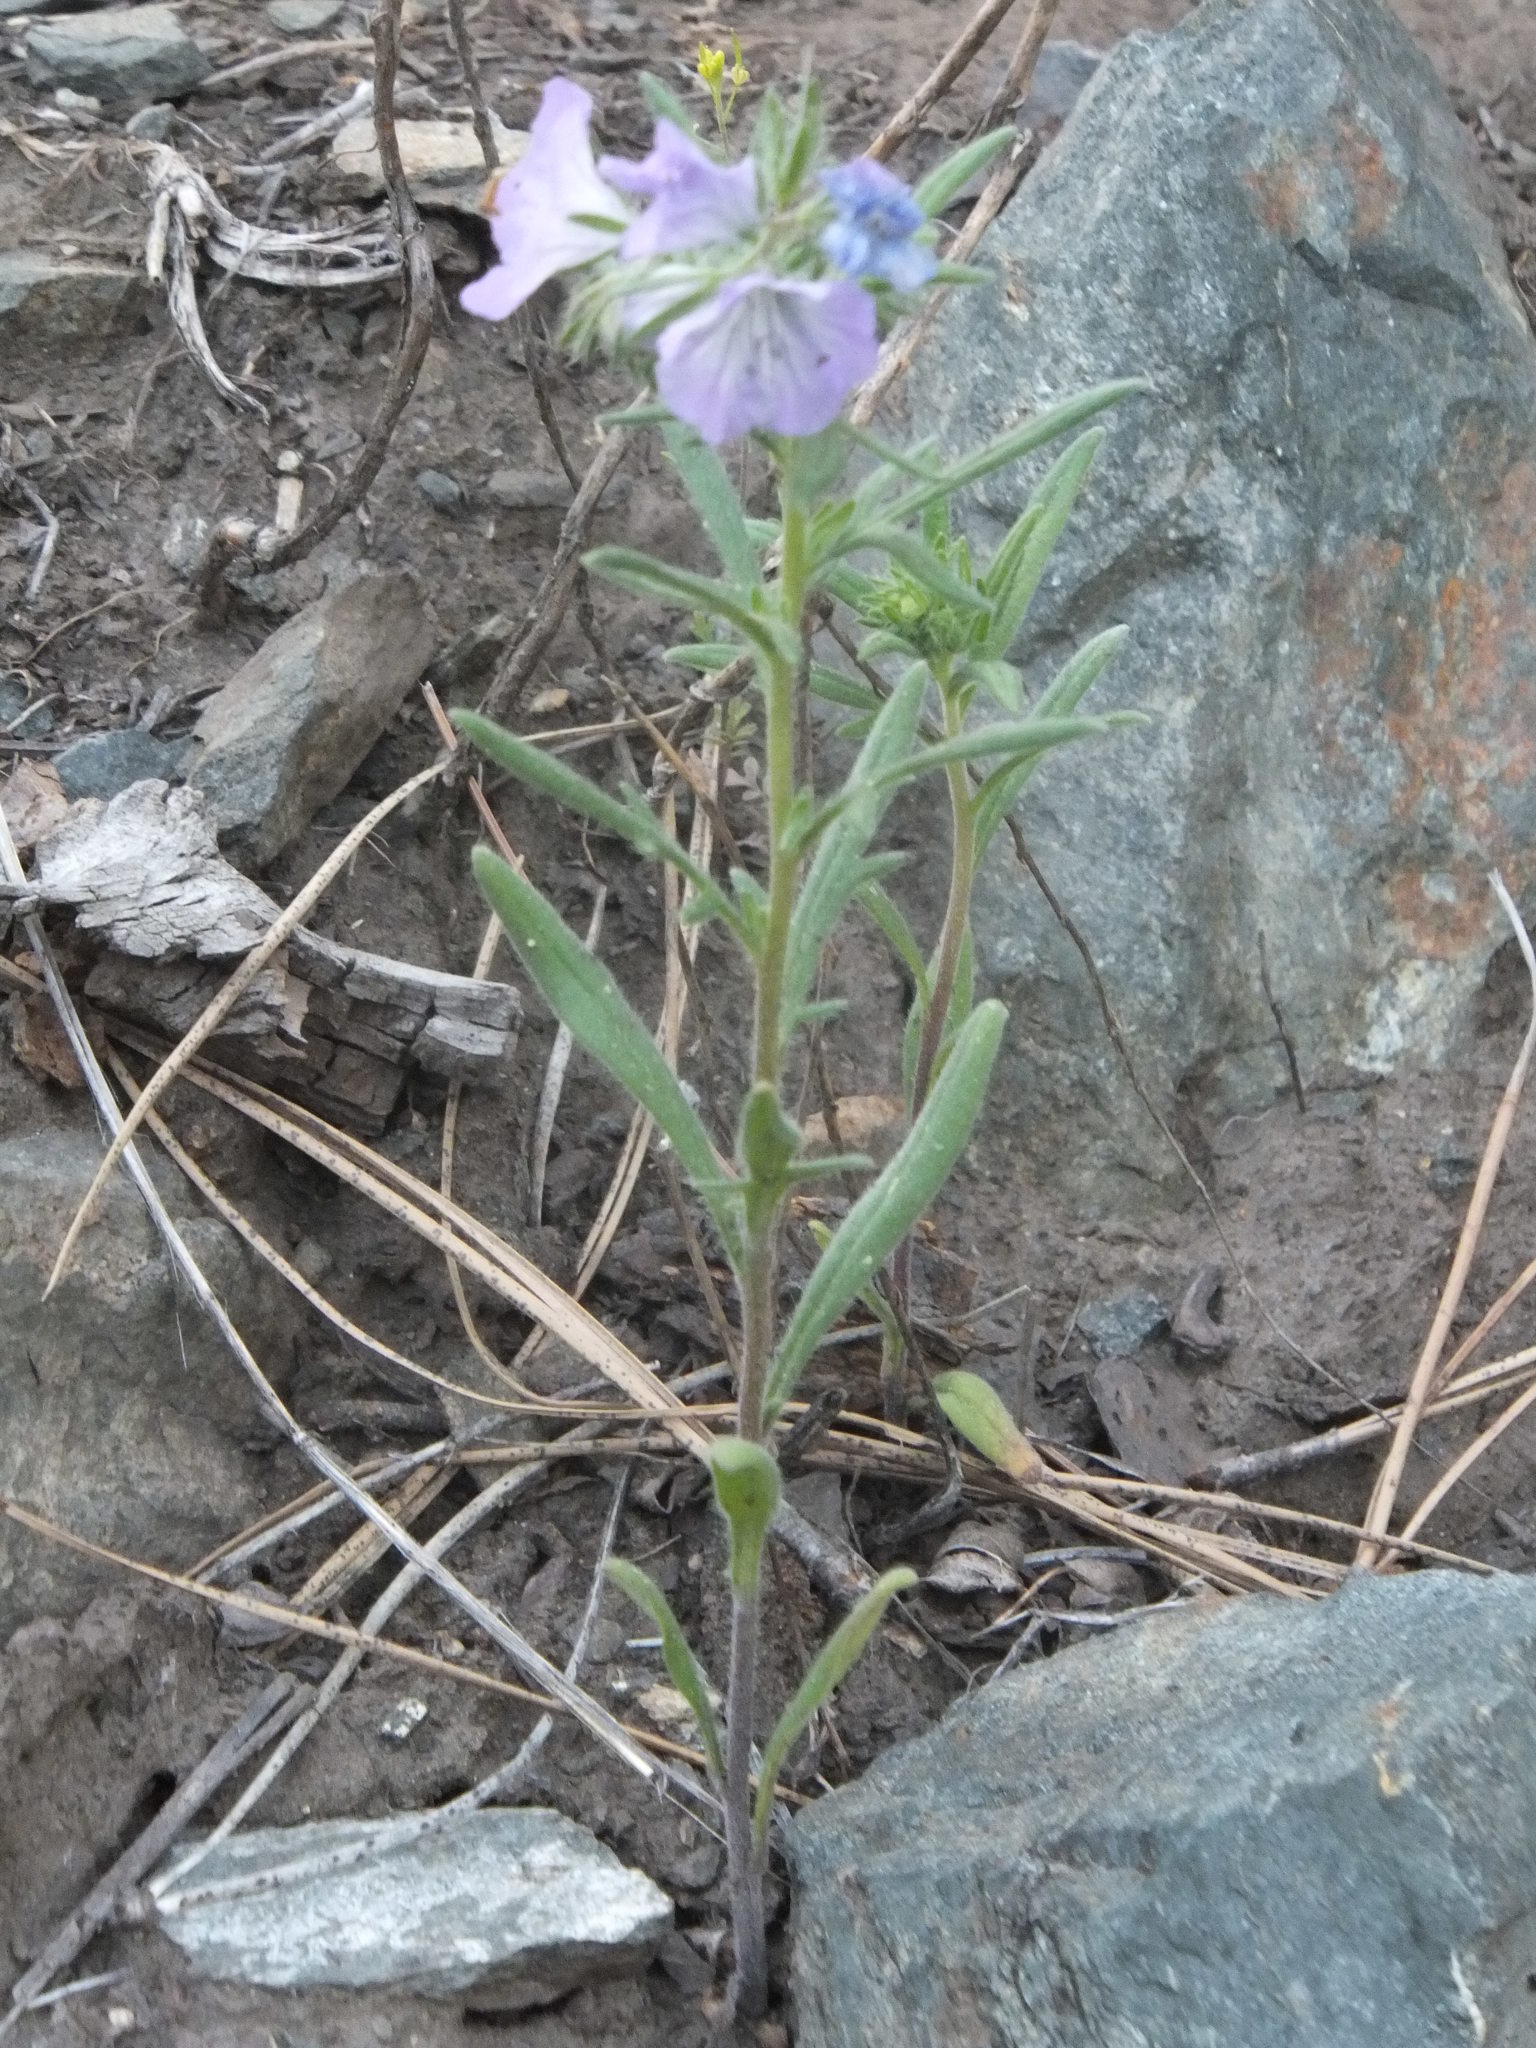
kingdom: Plantae
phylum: Tracheophyta
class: Magnoliopsida
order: Boraginales
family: Hydrophyllaceae
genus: Phacelia
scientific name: Phacelia linearis
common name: Linear-leaved phacelia
